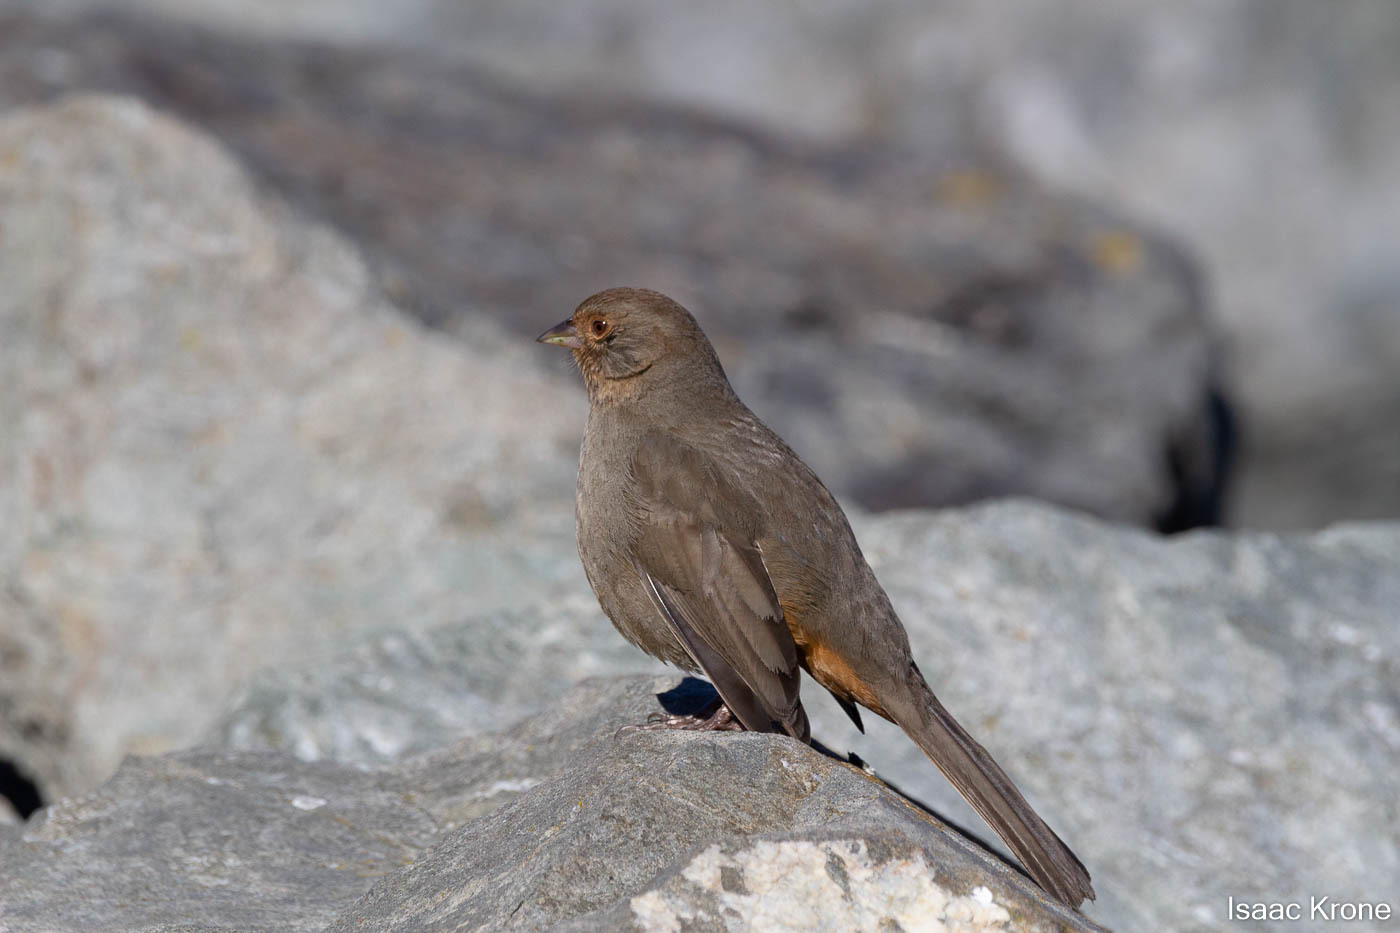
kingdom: Animalia
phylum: Chordata
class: Aves
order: Passeriformes
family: Passerellidae
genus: Melozone
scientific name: Melozone crissalis
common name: California towhee
